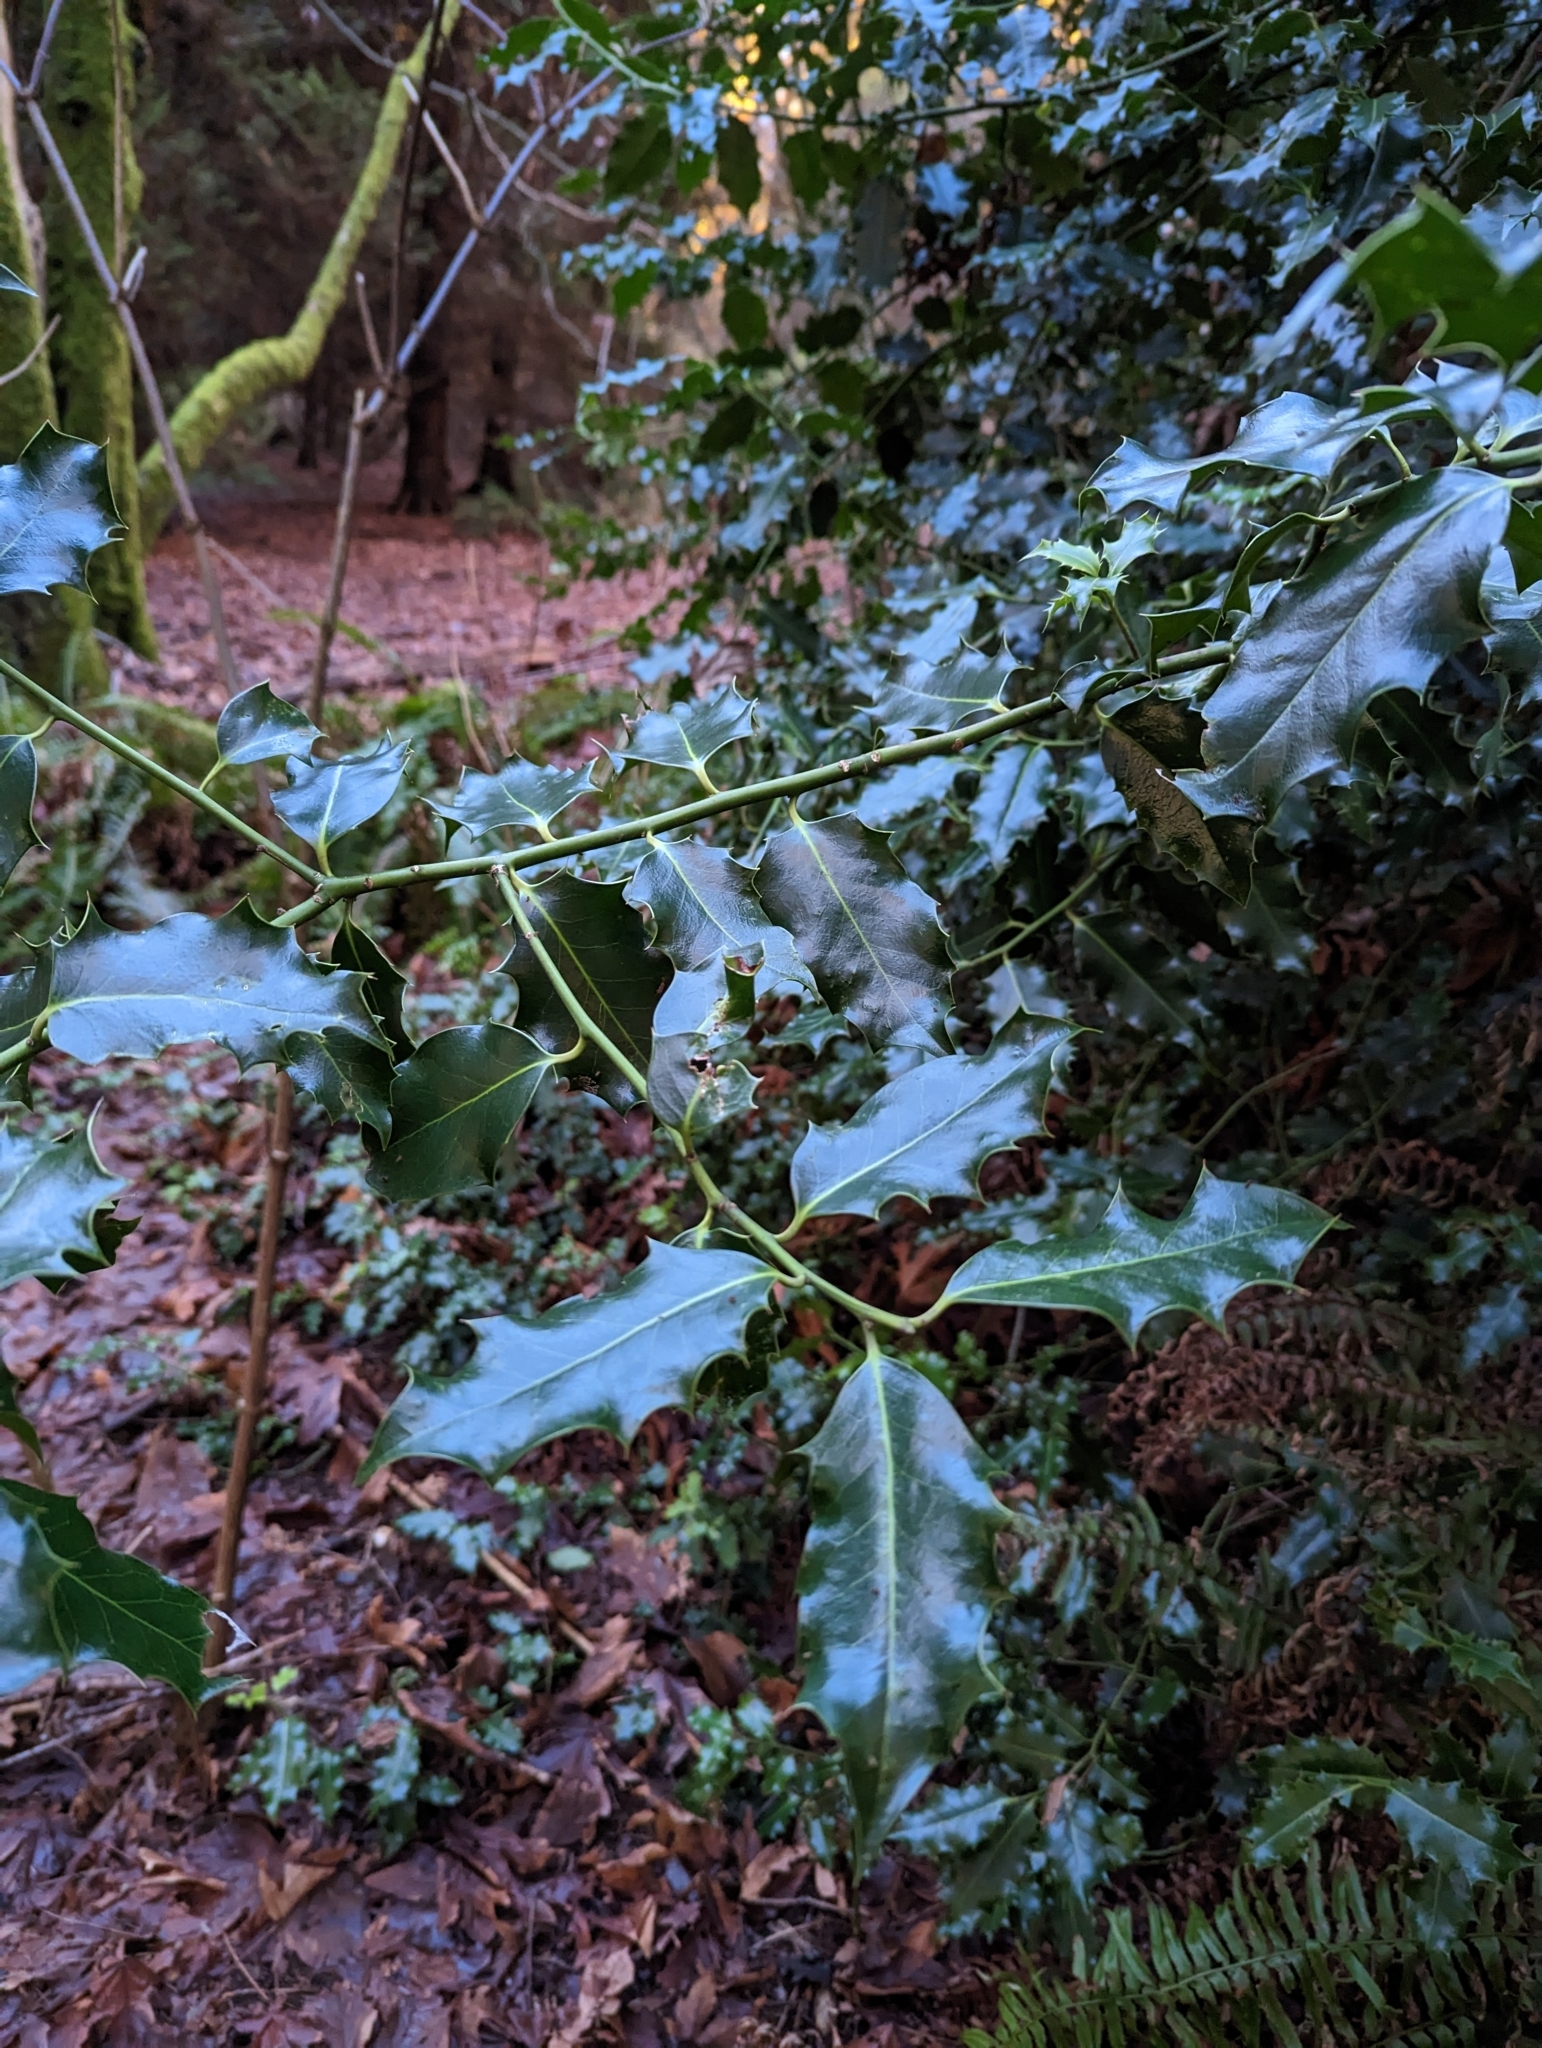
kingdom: Plantae
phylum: Tracheophyta
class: Magnoliopsida
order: Aquifoliales
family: Aquifoliaceae
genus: Ilex
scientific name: Ilex aquifolium
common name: English holly
